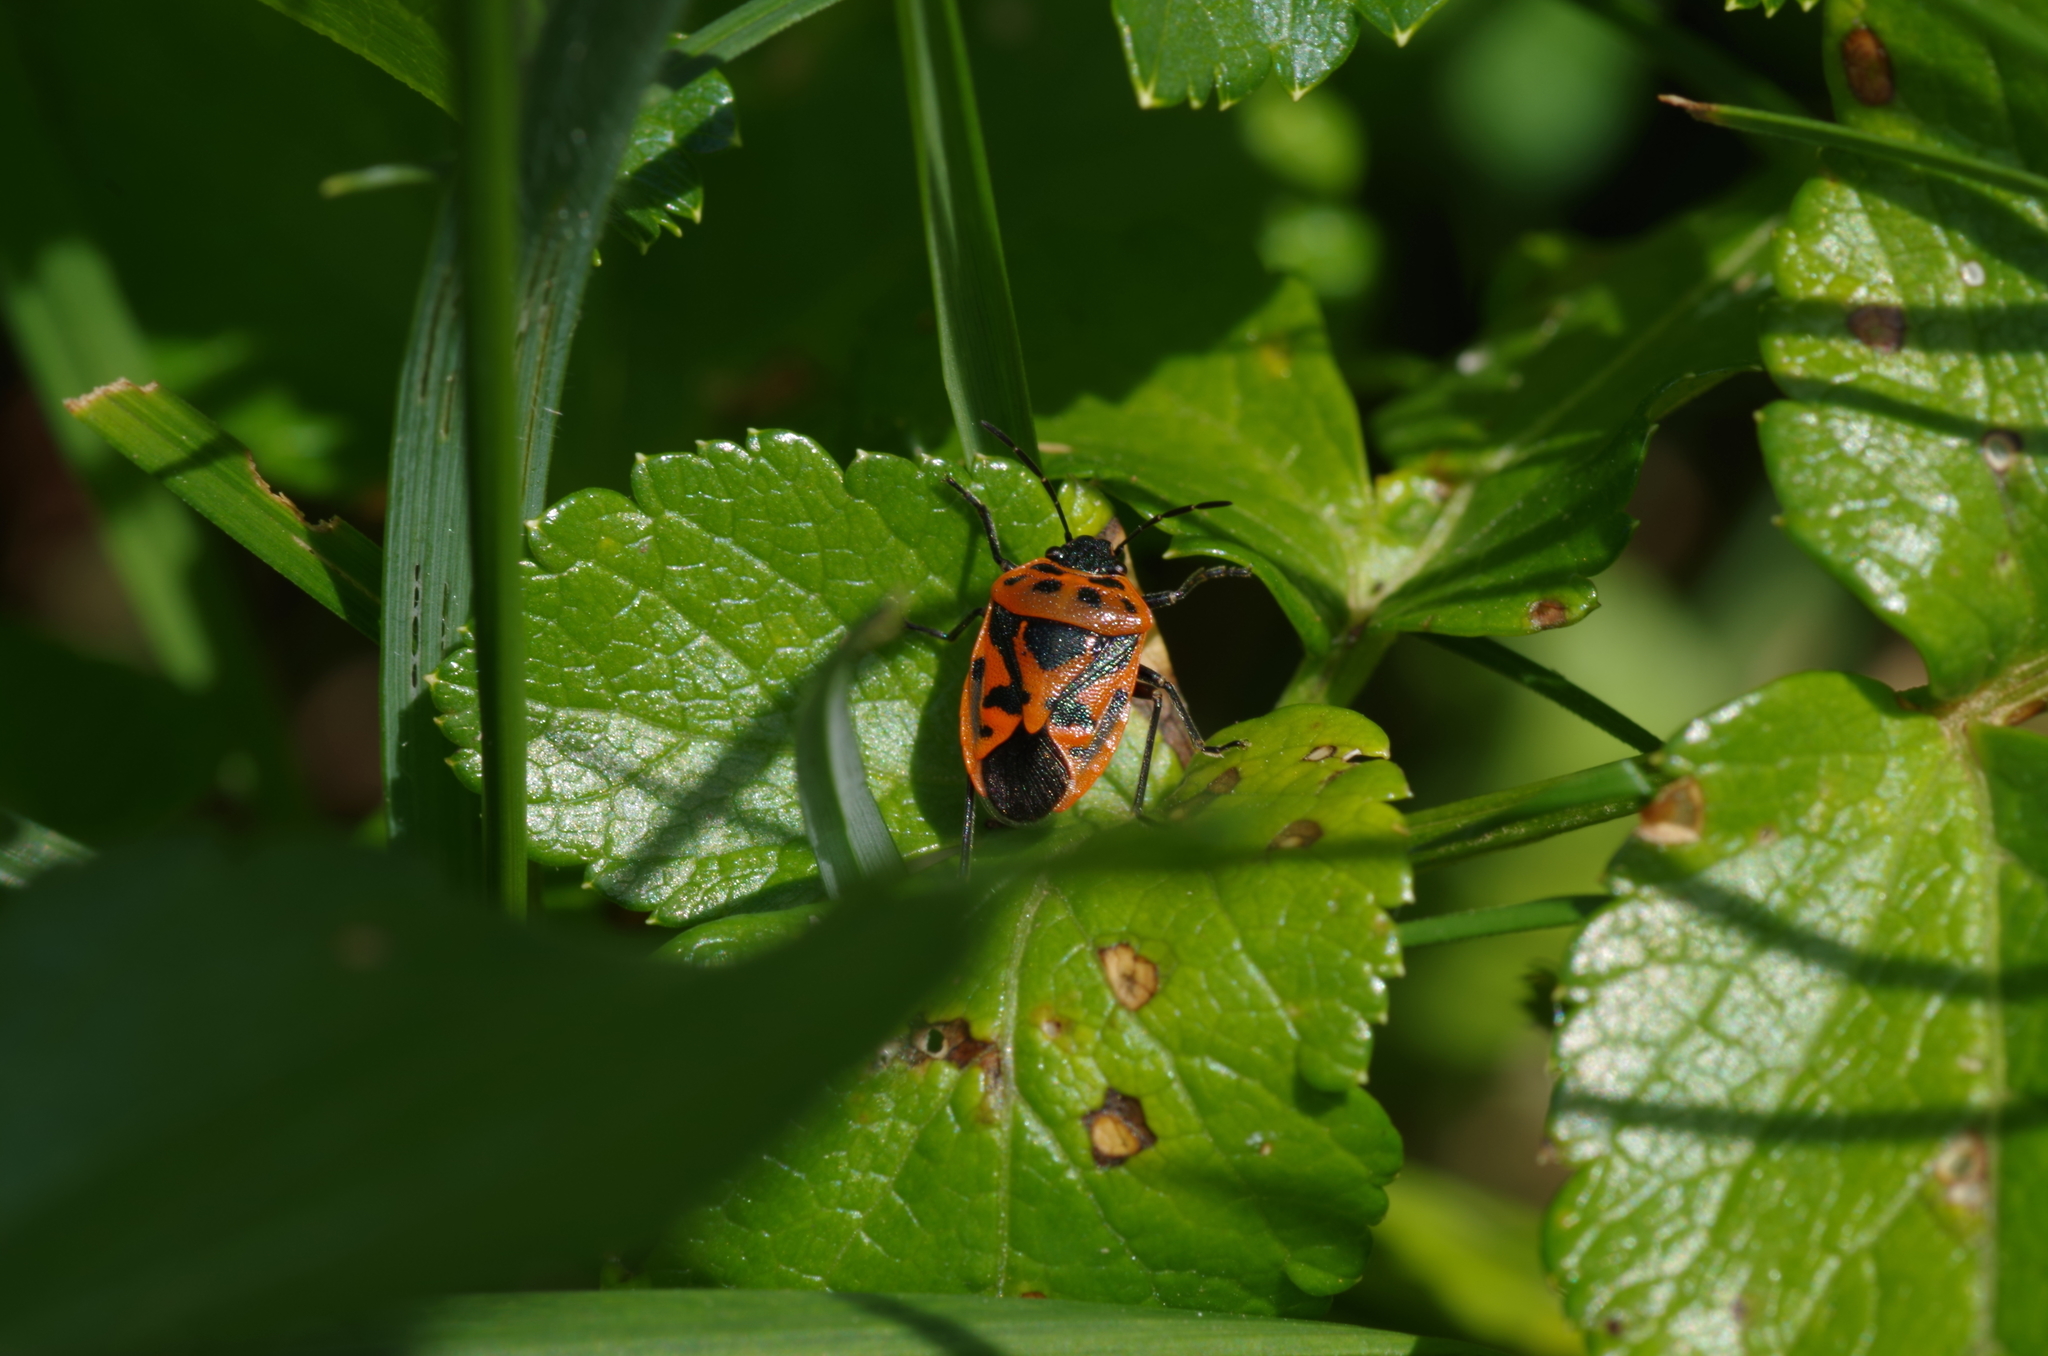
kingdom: Animalia
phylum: Arthropoda
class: Insecta
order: Hemiptera
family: Pentatomidae
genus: Eurydema
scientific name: Eurydema ornata
